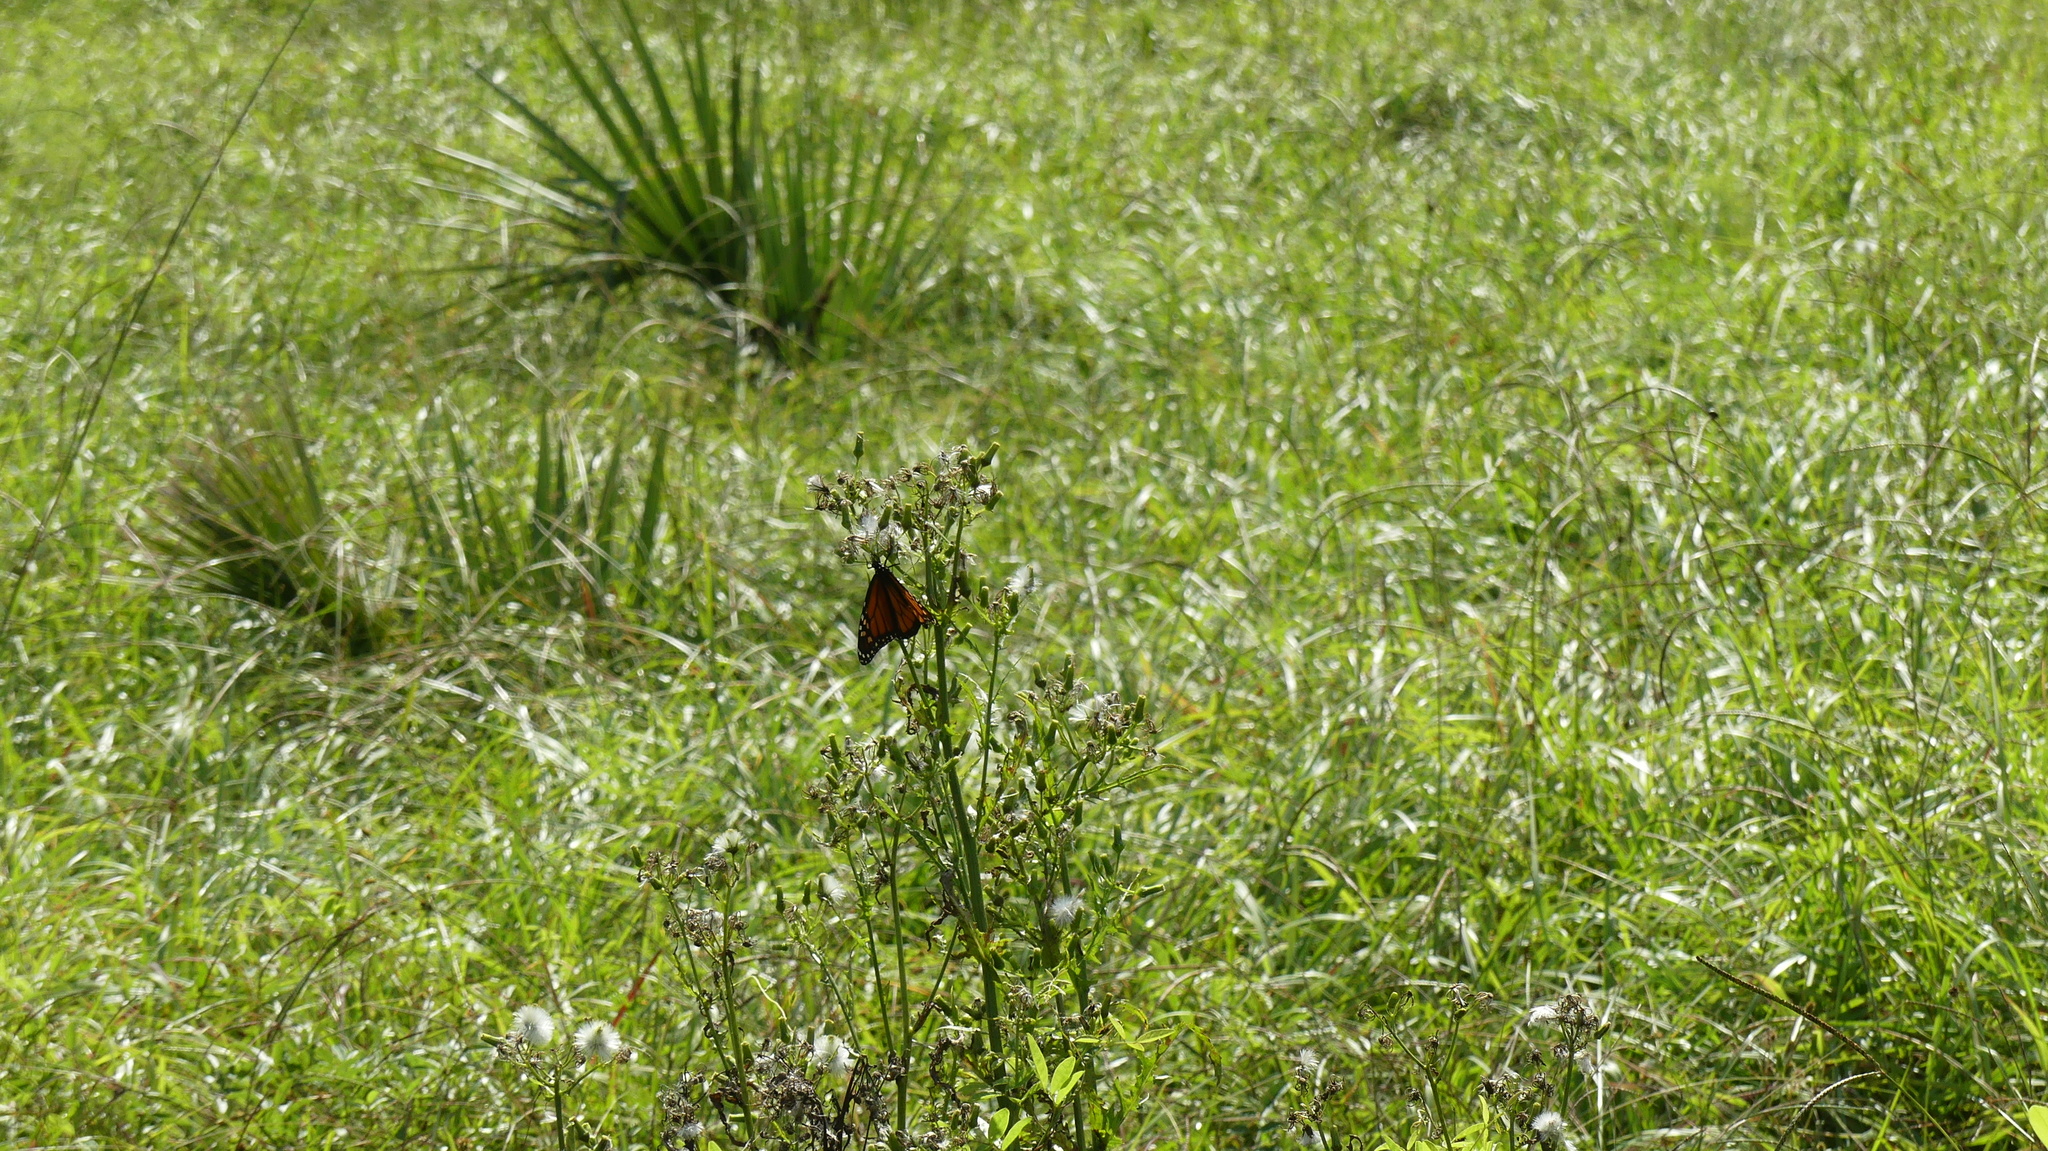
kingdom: Animalia
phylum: Arthropoda
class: Insecta
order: Lepidoptera
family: Nymphalidae
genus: Danaus
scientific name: Danaus plexippus
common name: Monarch
